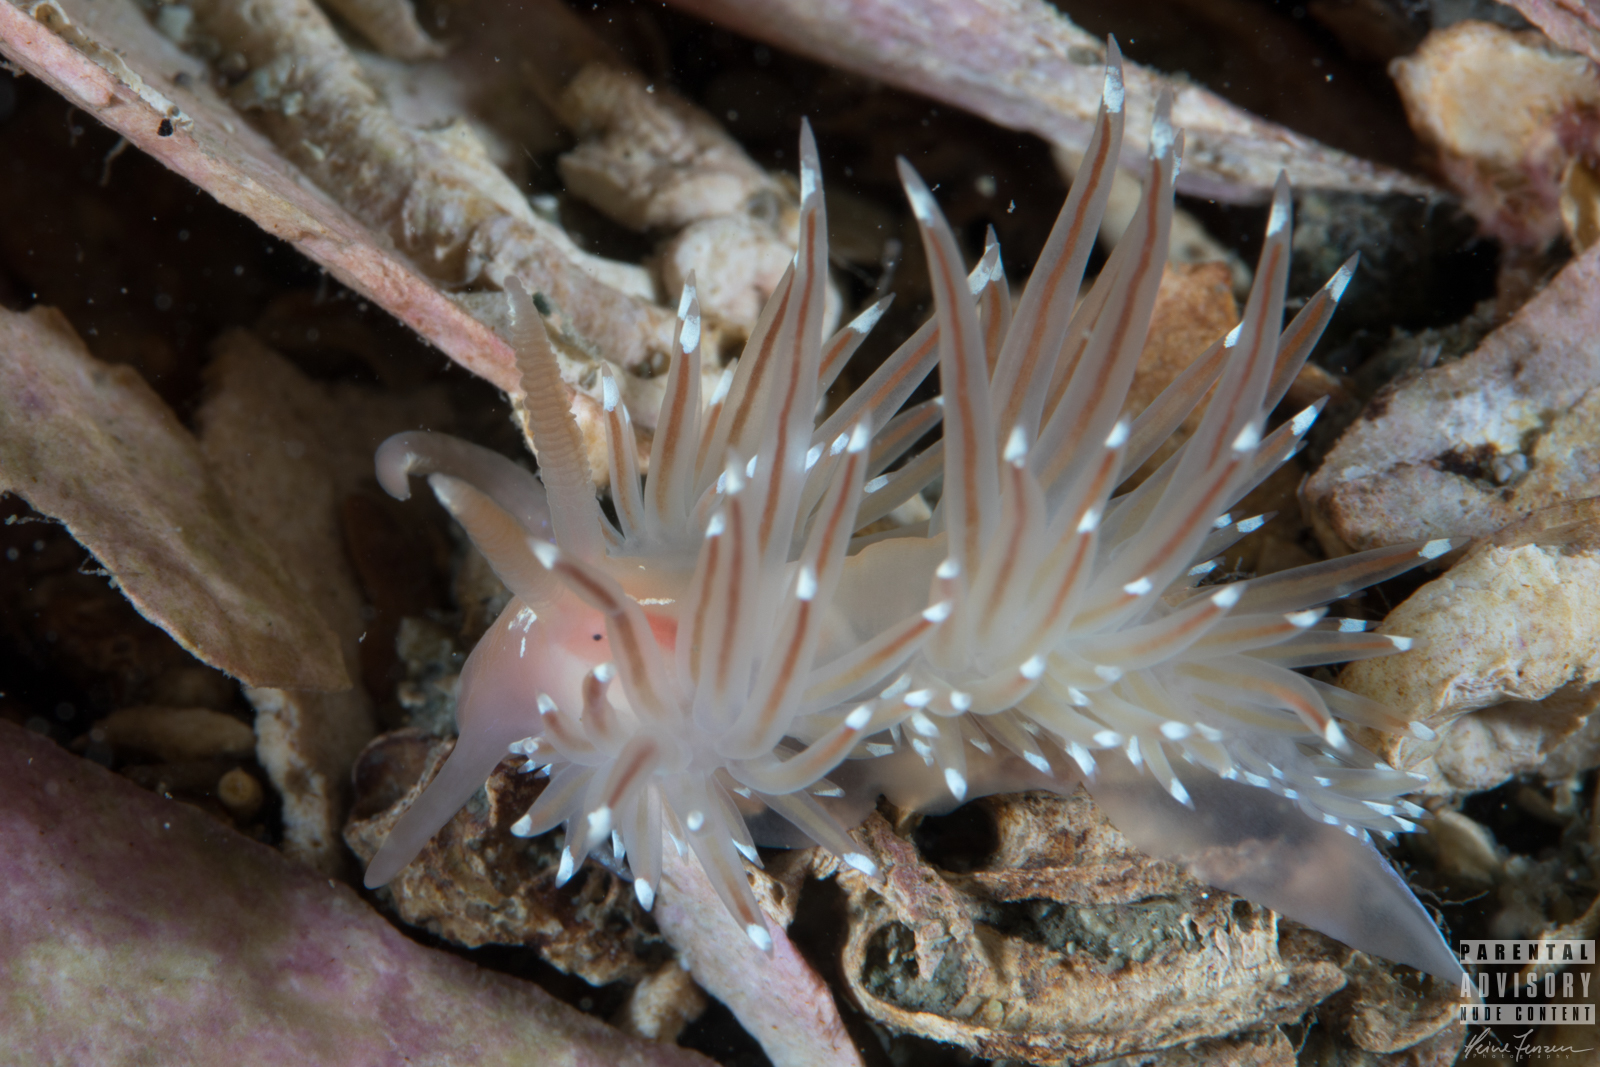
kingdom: Animalia
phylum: Mollusca
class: Gastropoda
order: Nudibranchia
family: Facelinidae
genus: Facelina
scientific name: Facelina bostoniensis
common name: Boston facelina
